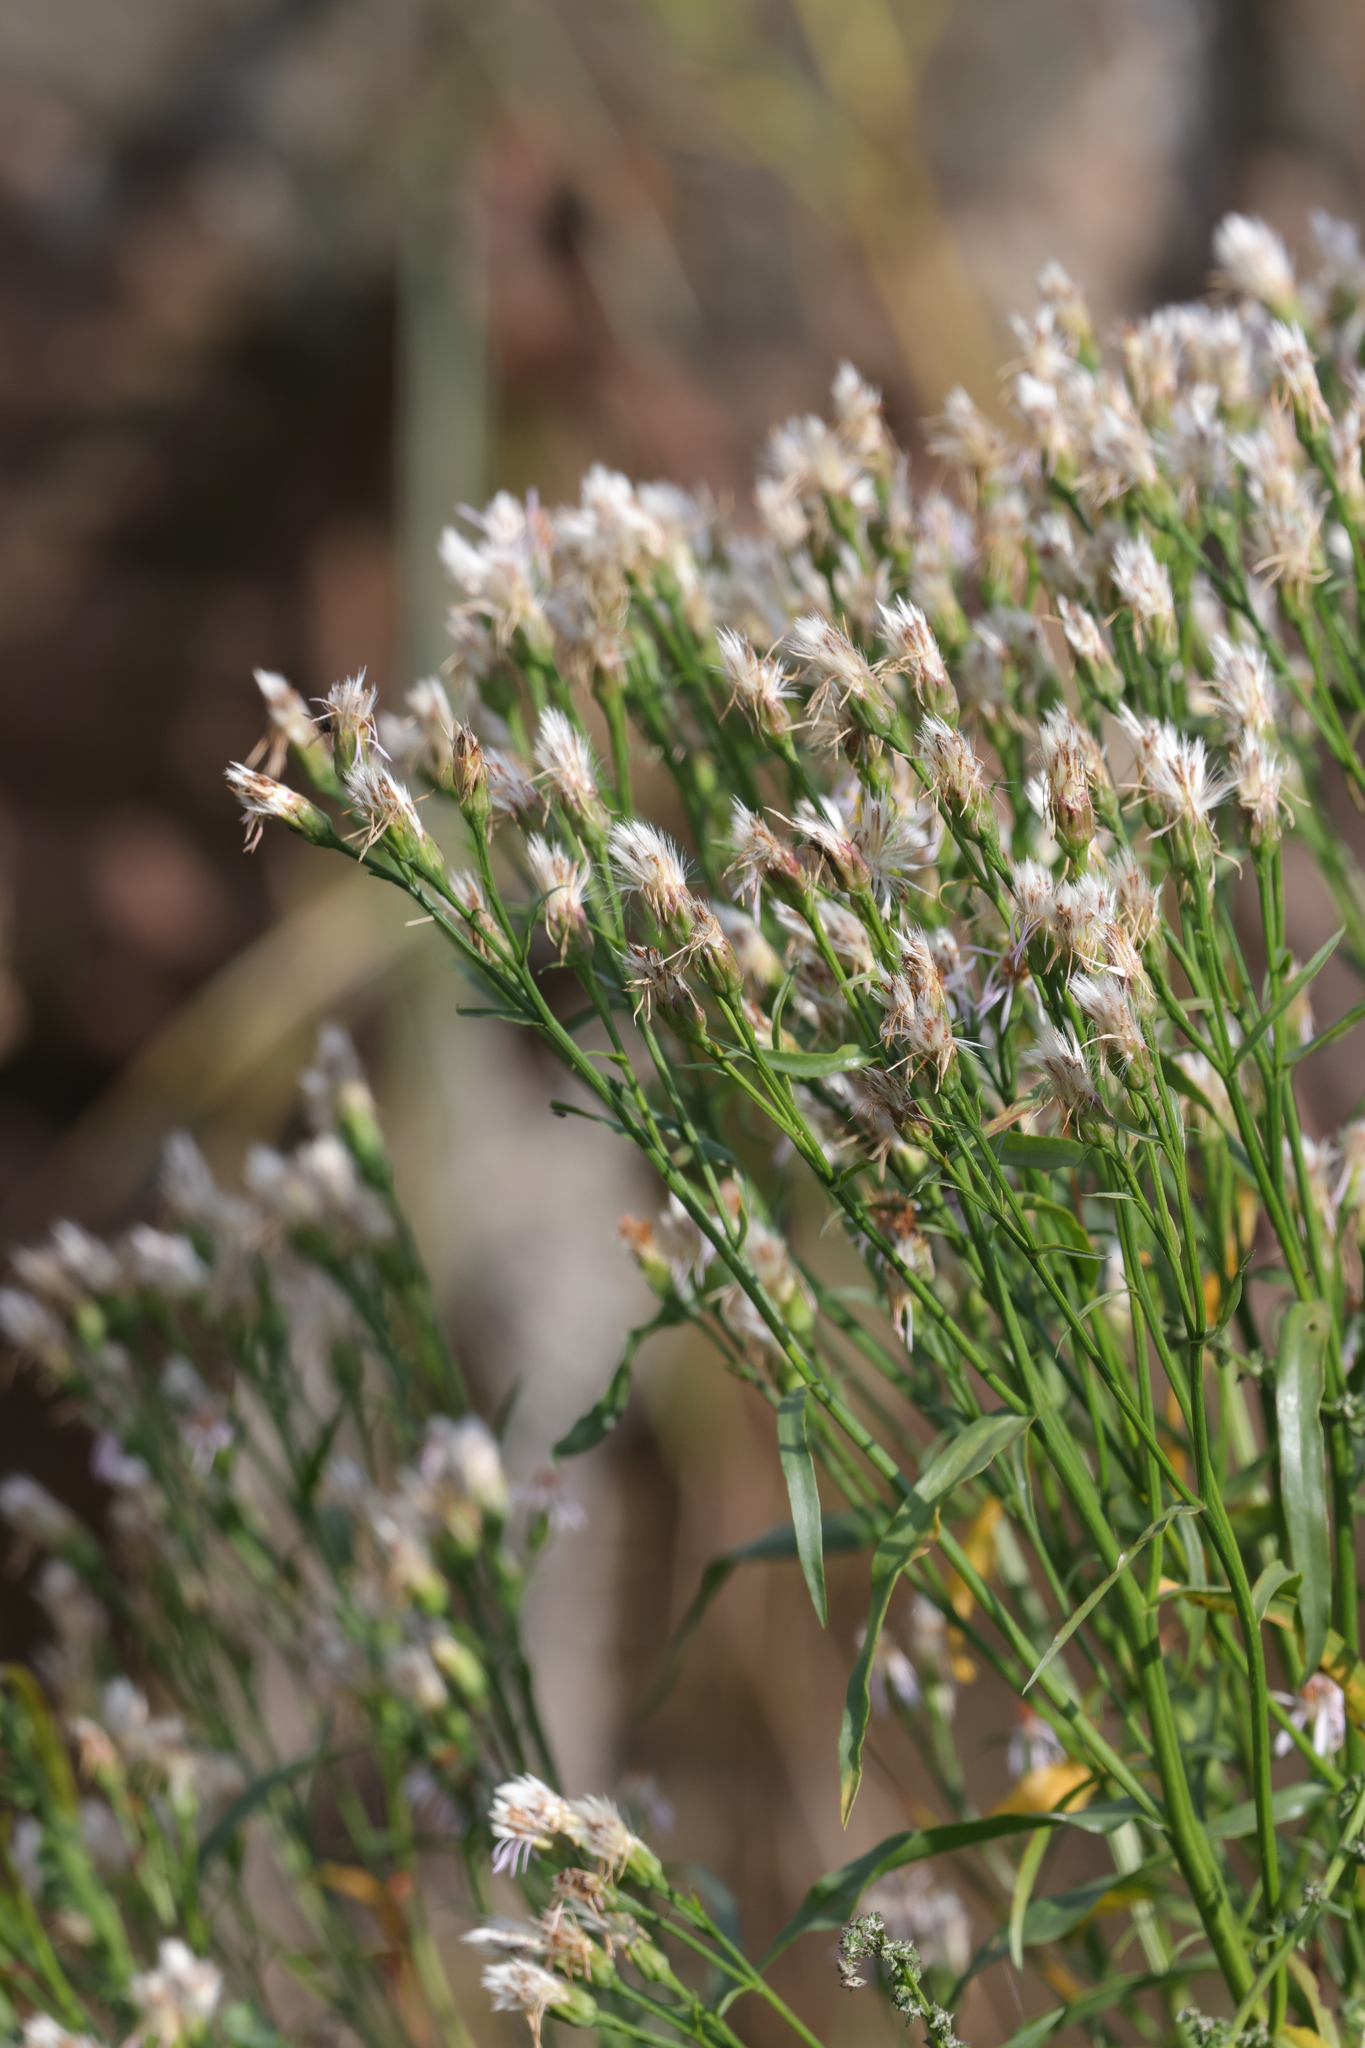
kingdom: Plantae
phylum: Tracheophyta
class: Magnoliopsida
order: Asterales
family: Asteraceae
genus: Tripolium
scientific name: Tripolium pannonicum
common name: Sea aster
